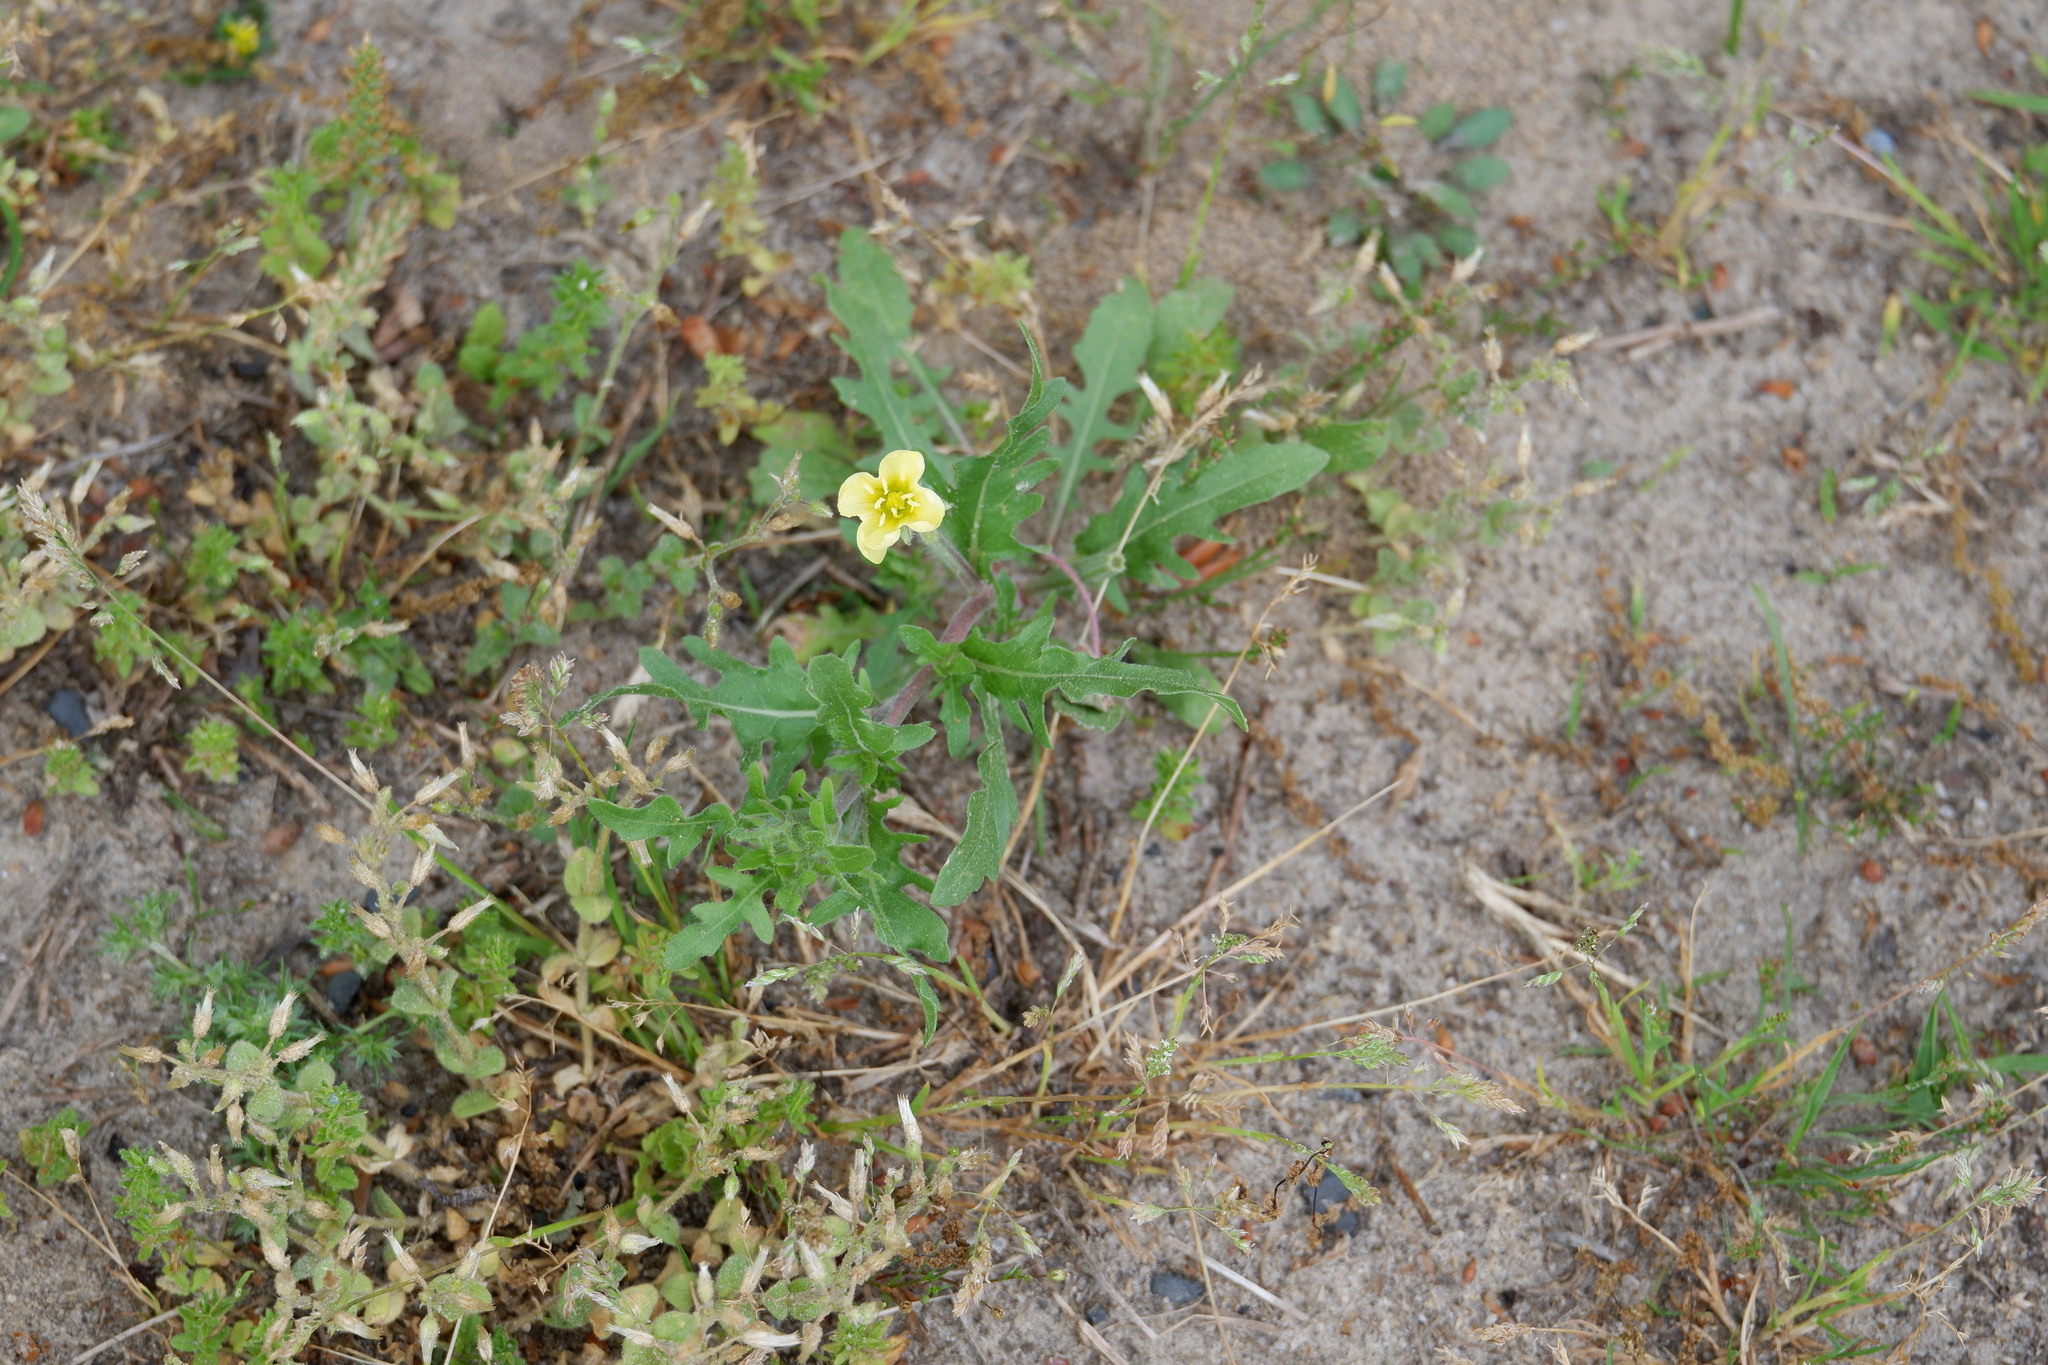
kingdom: Plantae
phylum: Tracheophyta
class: Magnoliopsida
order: Myrtales
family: Onagraceae
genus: Oenothera
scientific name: Oenothera laciniata
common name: Cut-leaved evening-primrose
